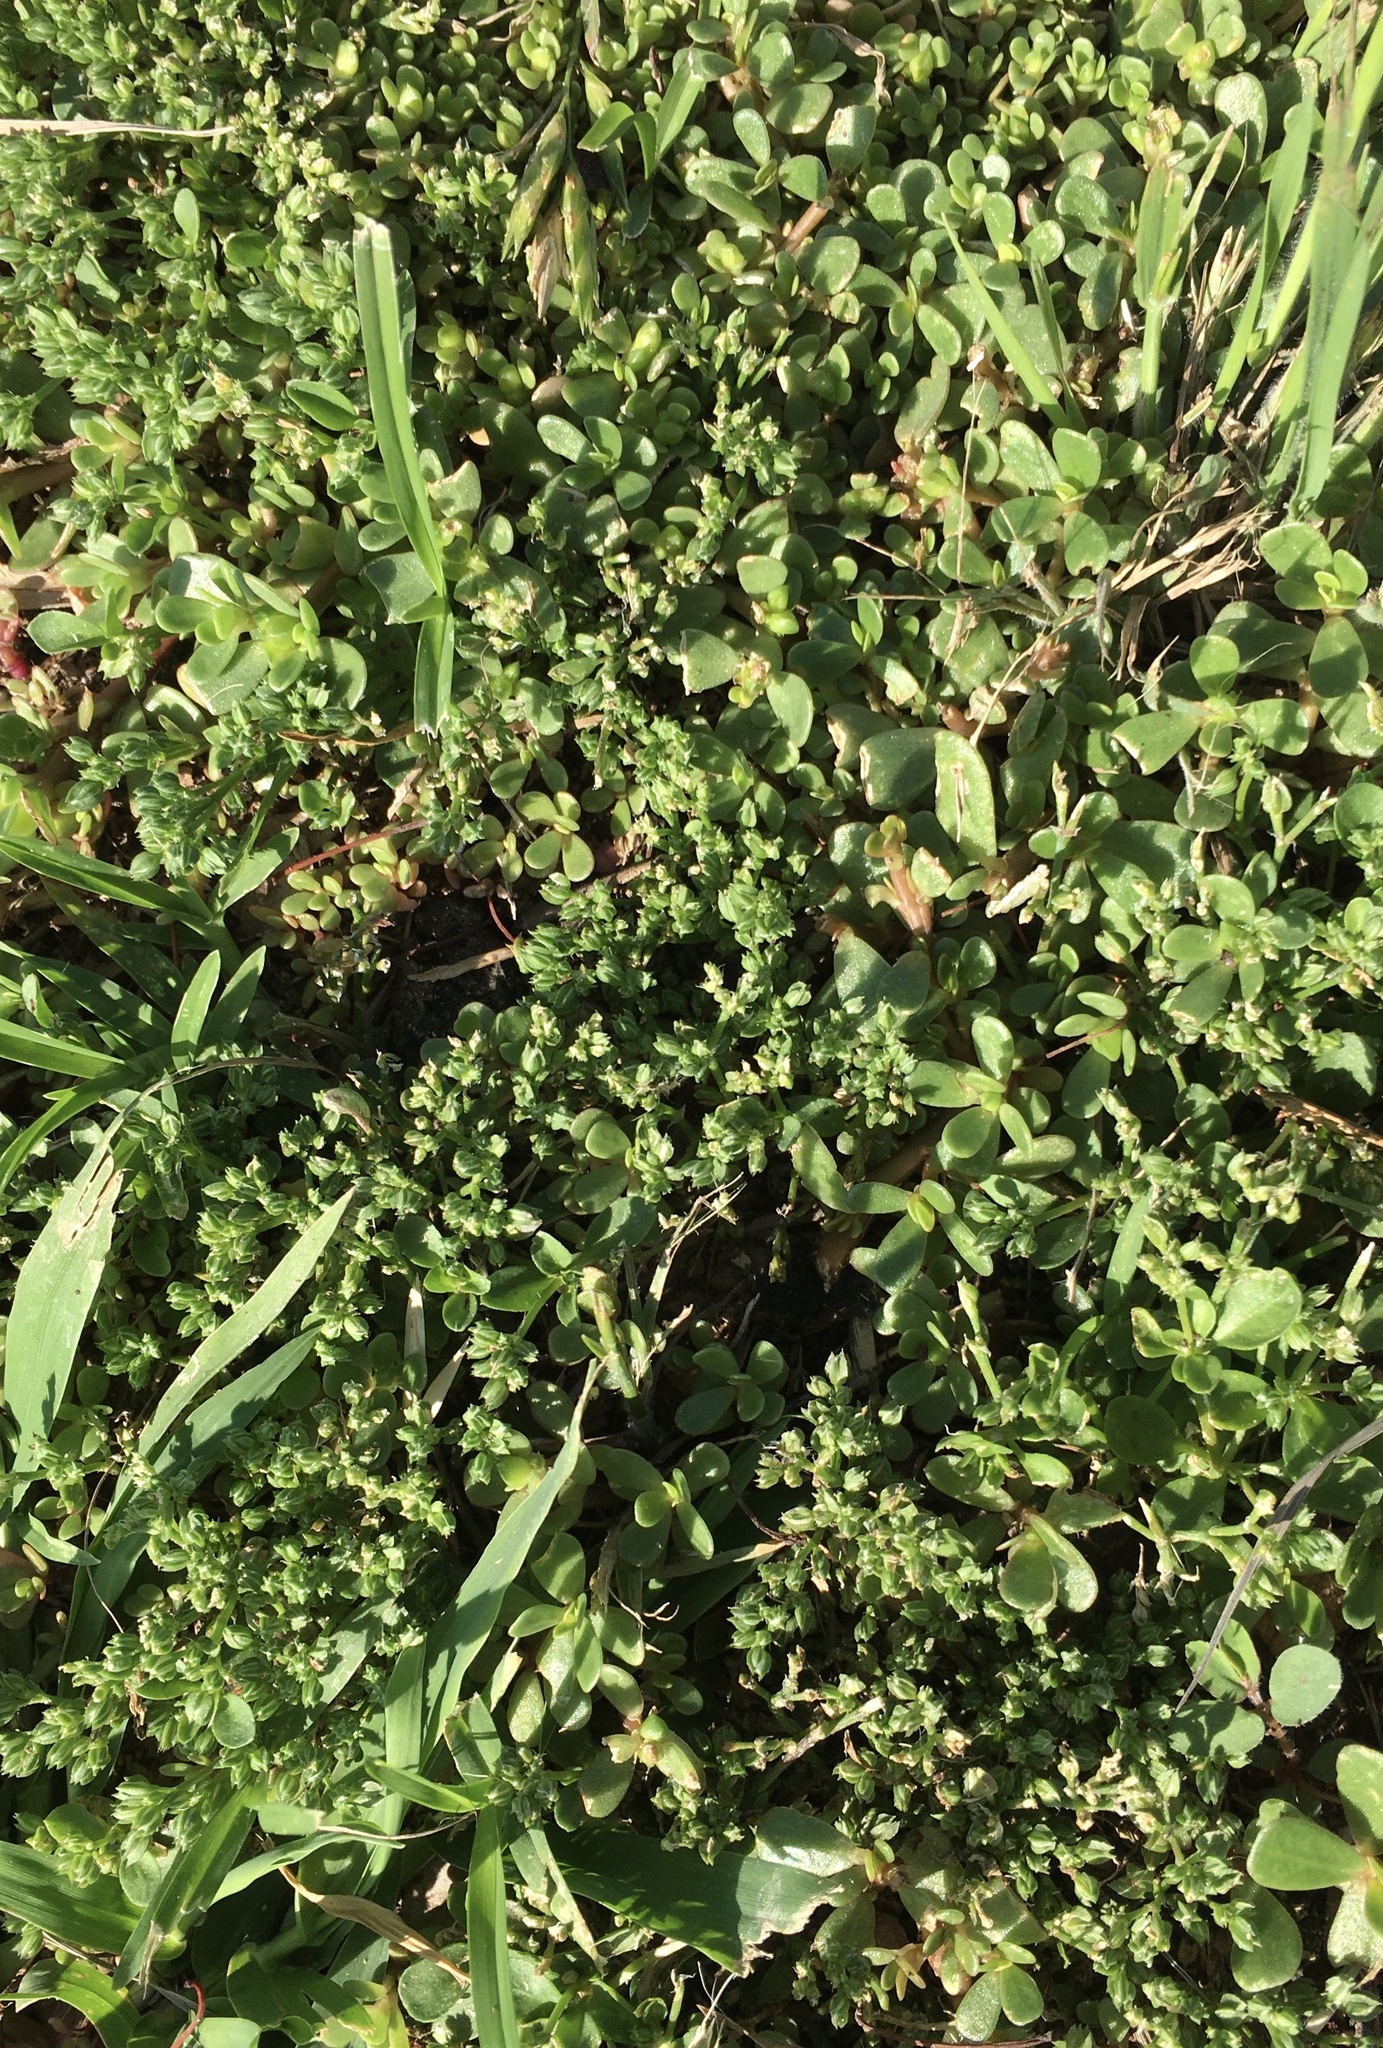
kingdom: Plantae
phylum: Tracheophyta
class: Magnoliopsida
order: Caryophyllales
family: Caryophyllaceae
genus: Polycarpon
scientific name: Polycarpon tetraphyllum
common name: Four-leaved all-seed
